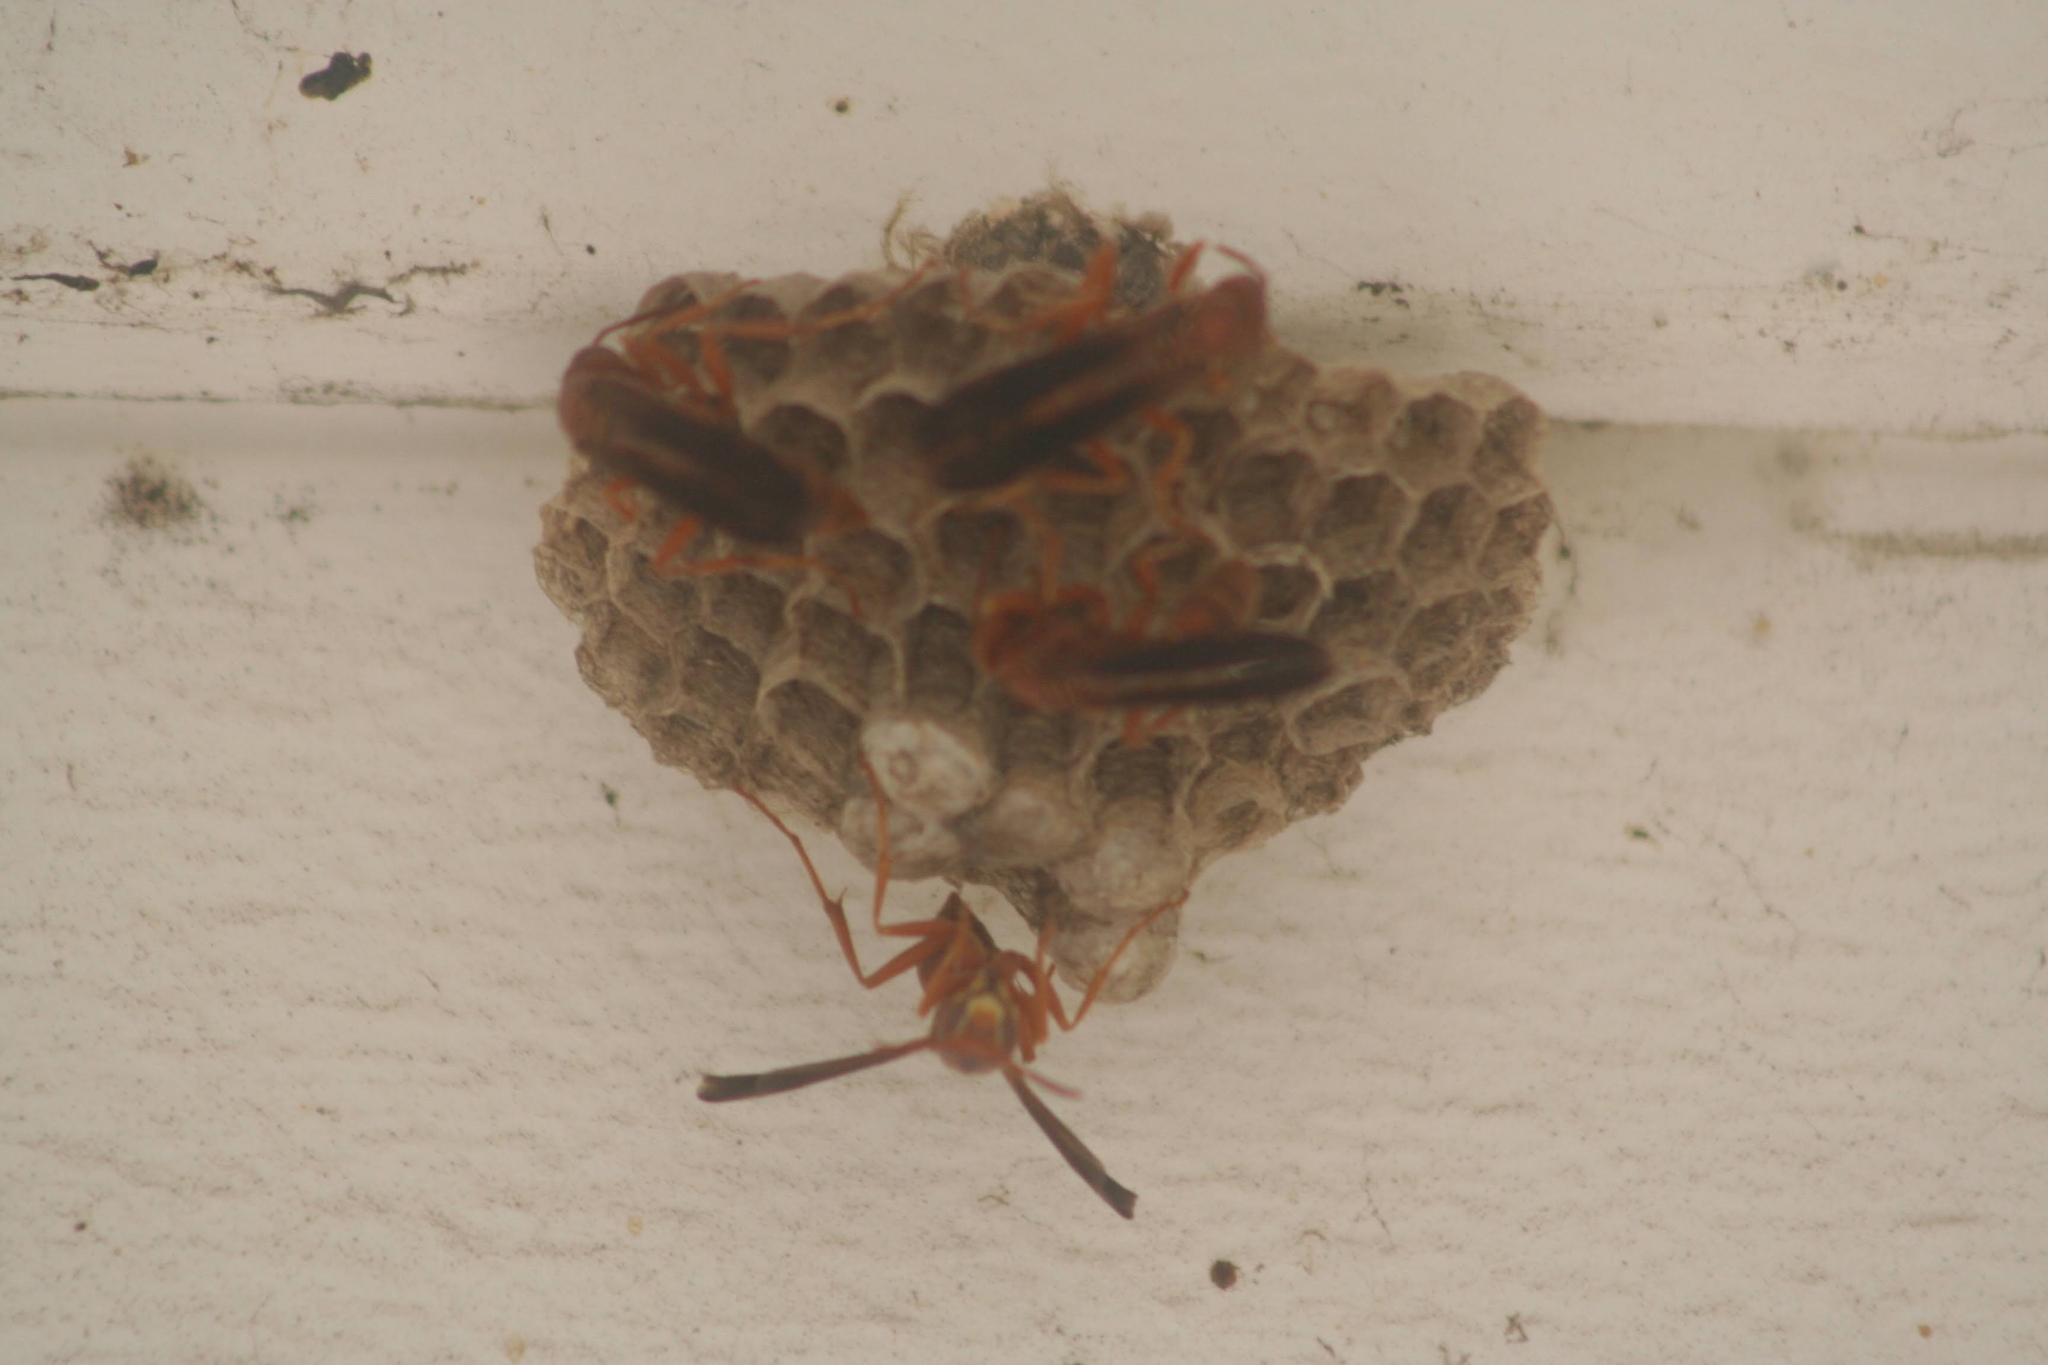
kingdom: Animalia
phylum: Arthropoda
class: Insecta
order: Hymenoptera
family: Vespidae
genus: Fuscopolistes
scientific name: Fuscopolistes
